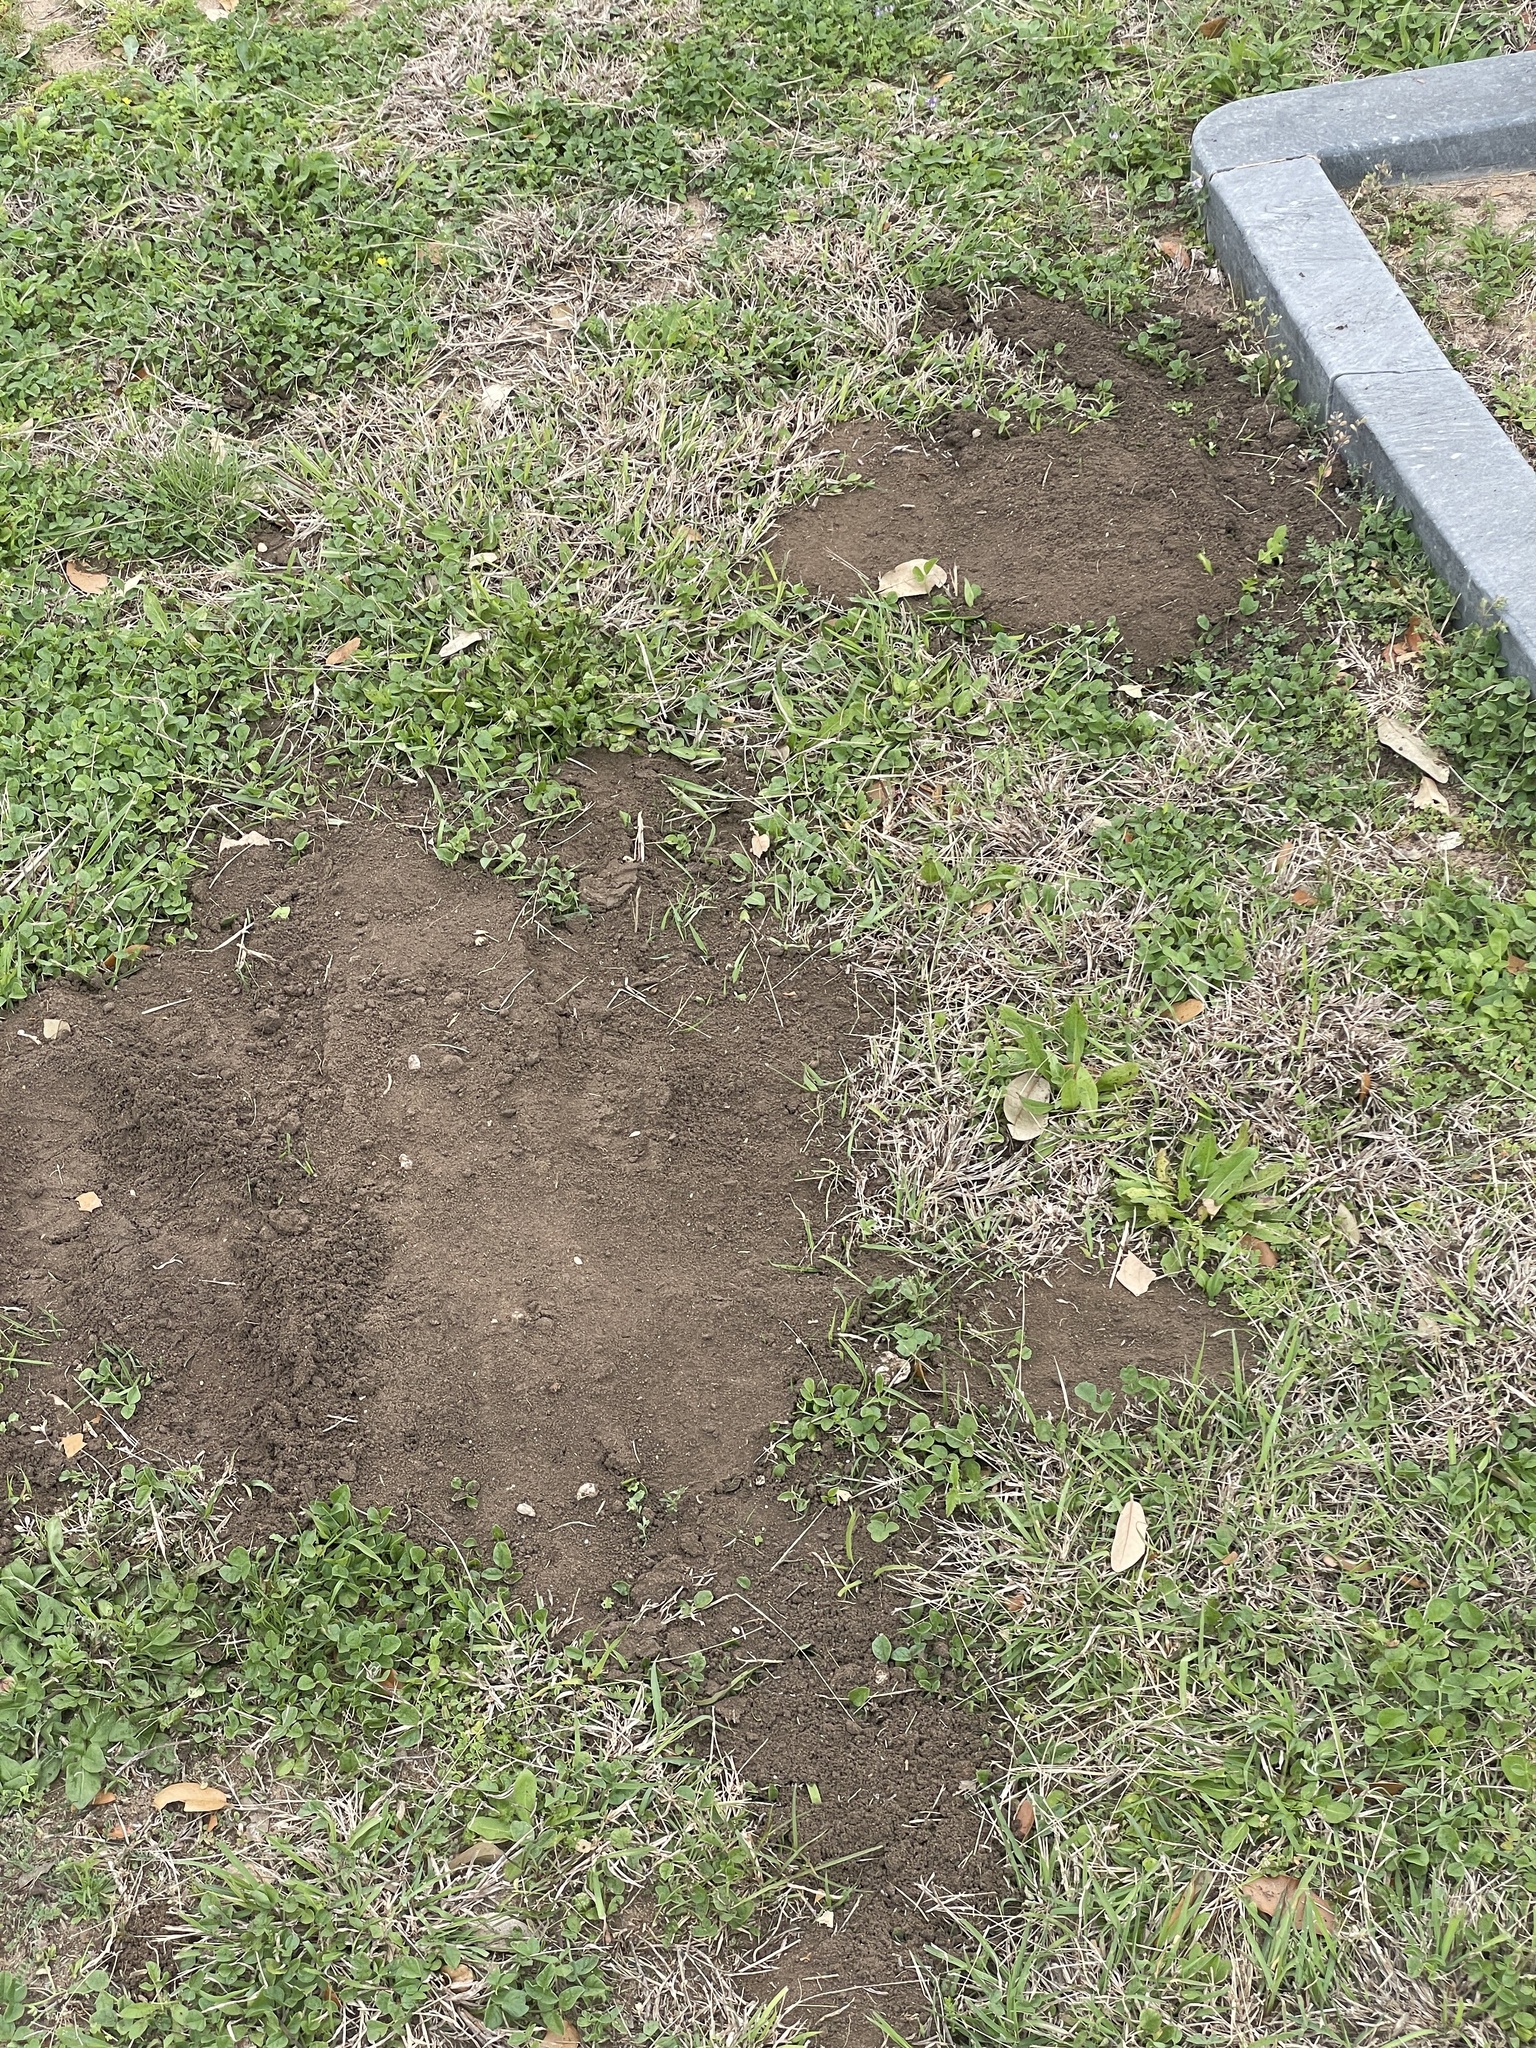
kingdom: Animalia
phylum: Chordata
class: Mammalia
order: Rodentia
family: Geomyidae
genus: Geomys
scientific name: Geomys attwateri
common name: Attwater's pocket gopher
